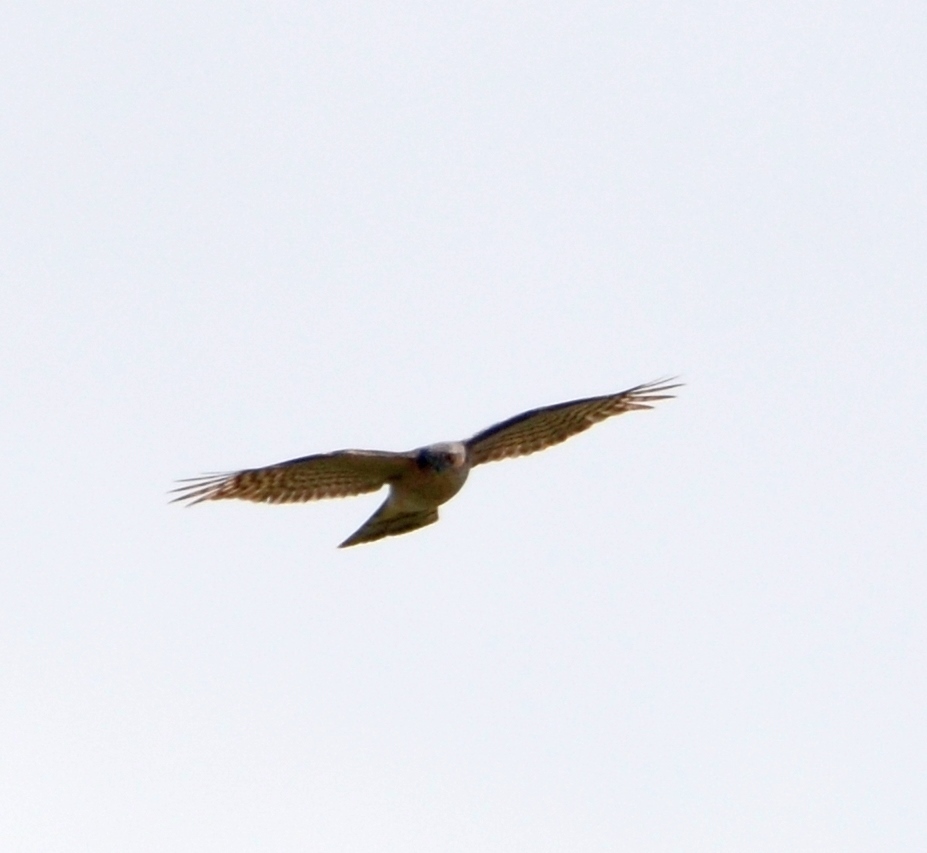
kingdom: Animalia
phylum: Chordata
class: Aves
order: Accipitriformes
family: Accipitridae
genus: Accipiter
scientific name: Accipiter nisus
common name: Eurasian sparrowhawk
